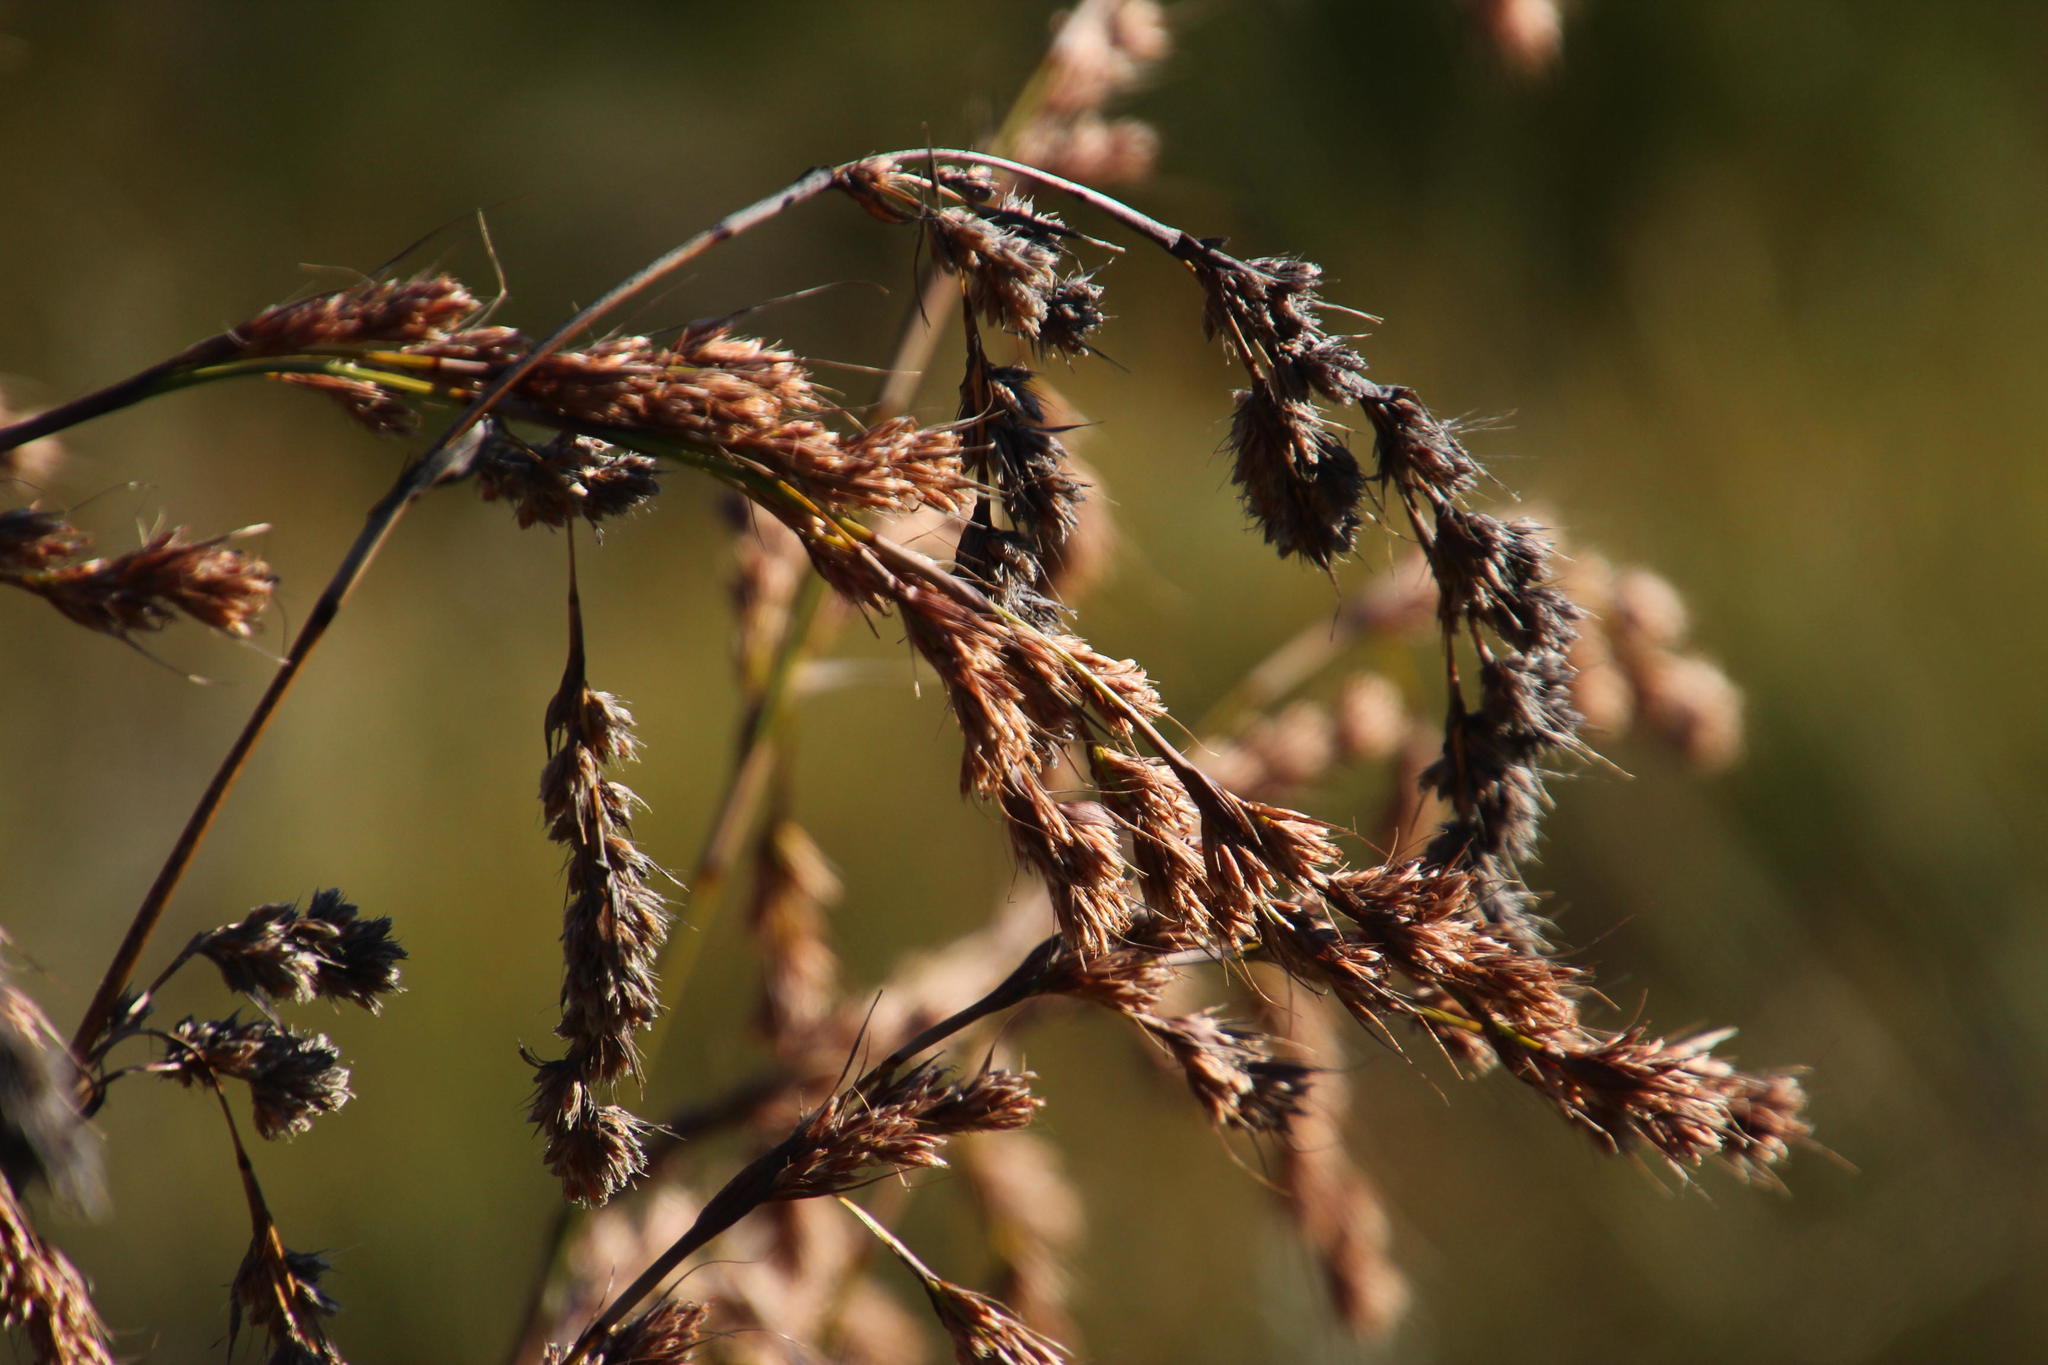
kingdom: Plantae
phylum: Tracheophyta
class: Liliopsida
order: Poales
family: Cyperaceae
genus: Tetraria
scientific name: Tetraria involucrata
